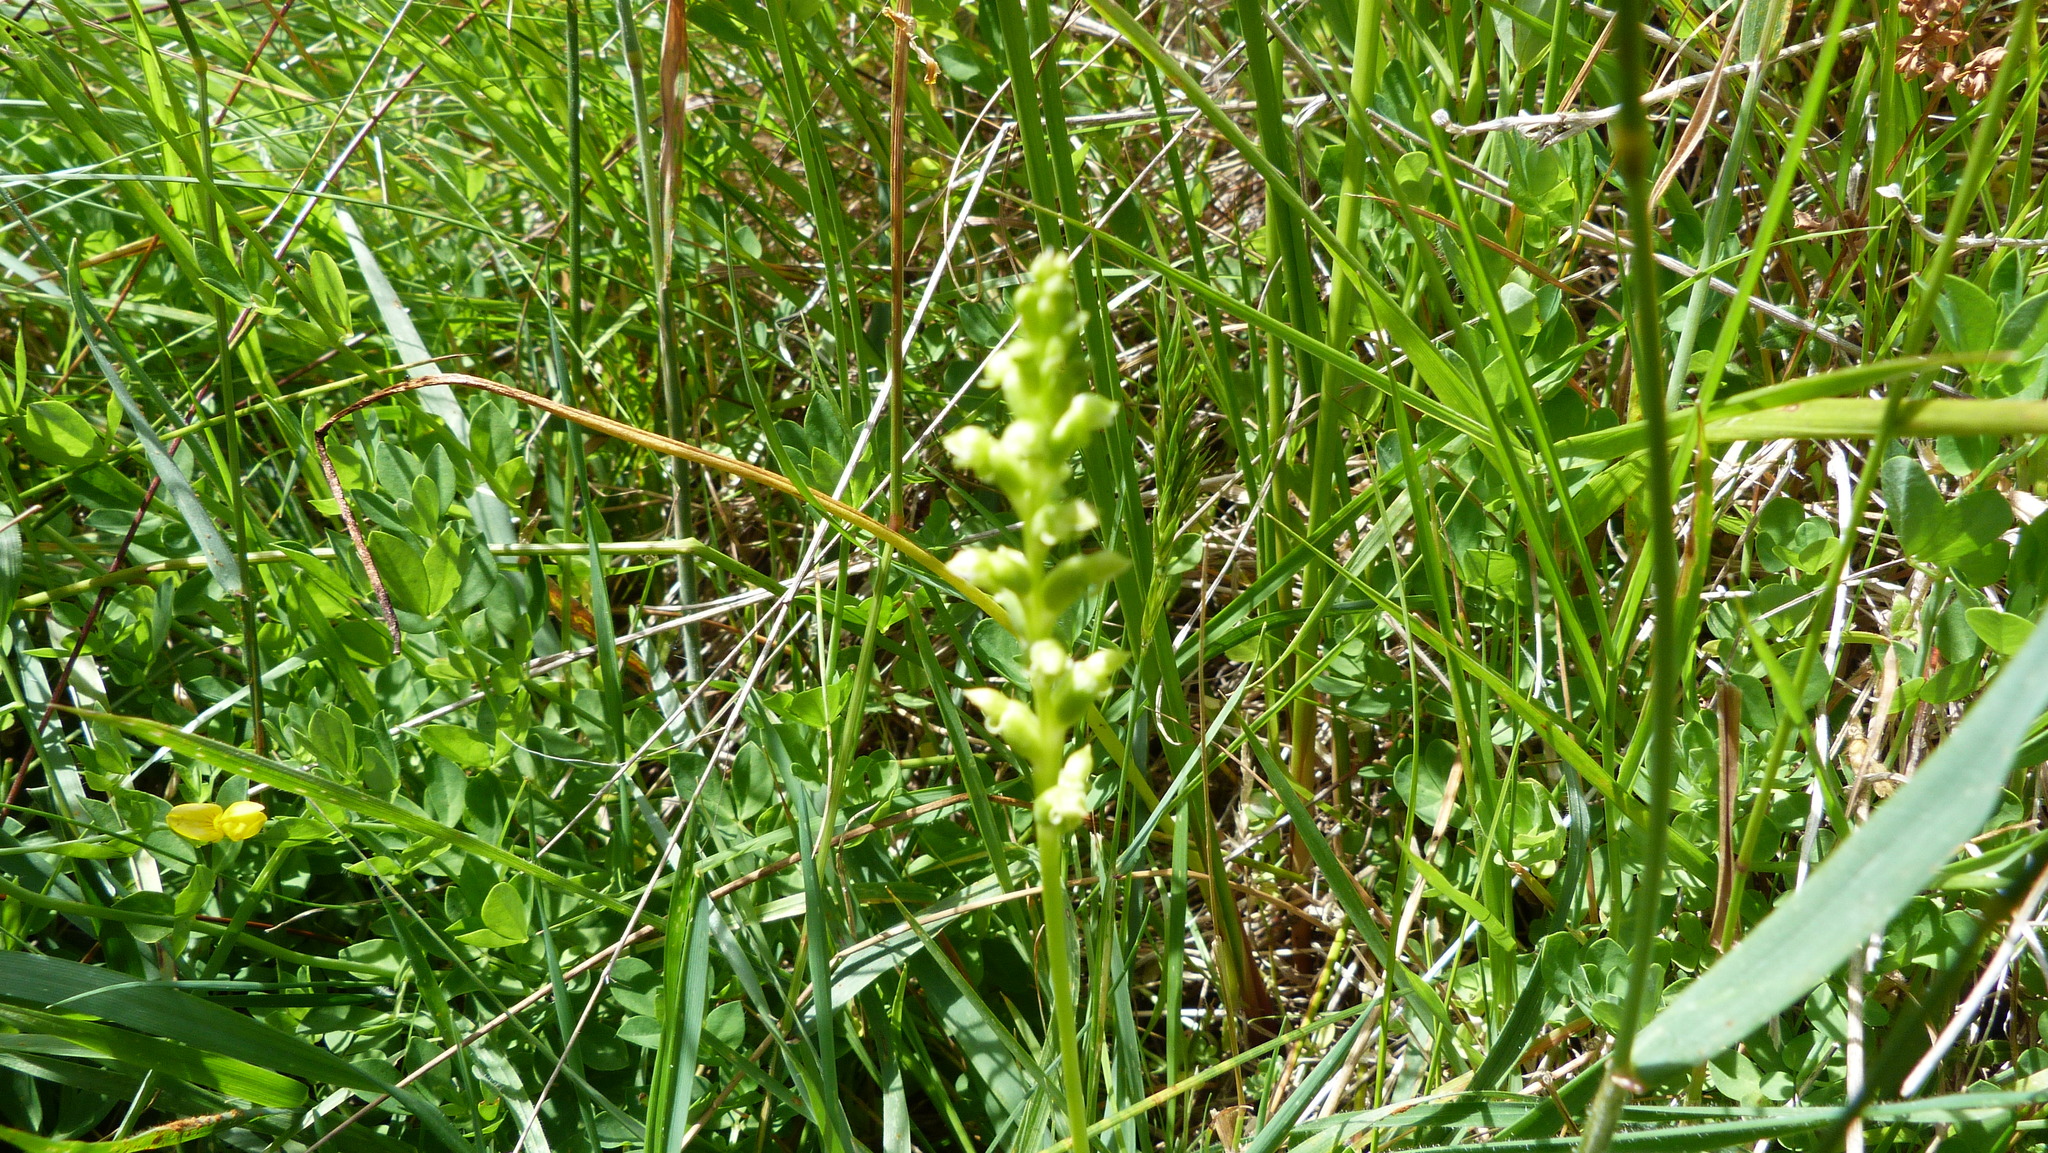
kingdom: Plantae
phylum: Tracheophyta
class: Liliopsida
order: Asparagales
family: Orchidaceae
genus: Microtis
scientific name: Microtis unifolia
